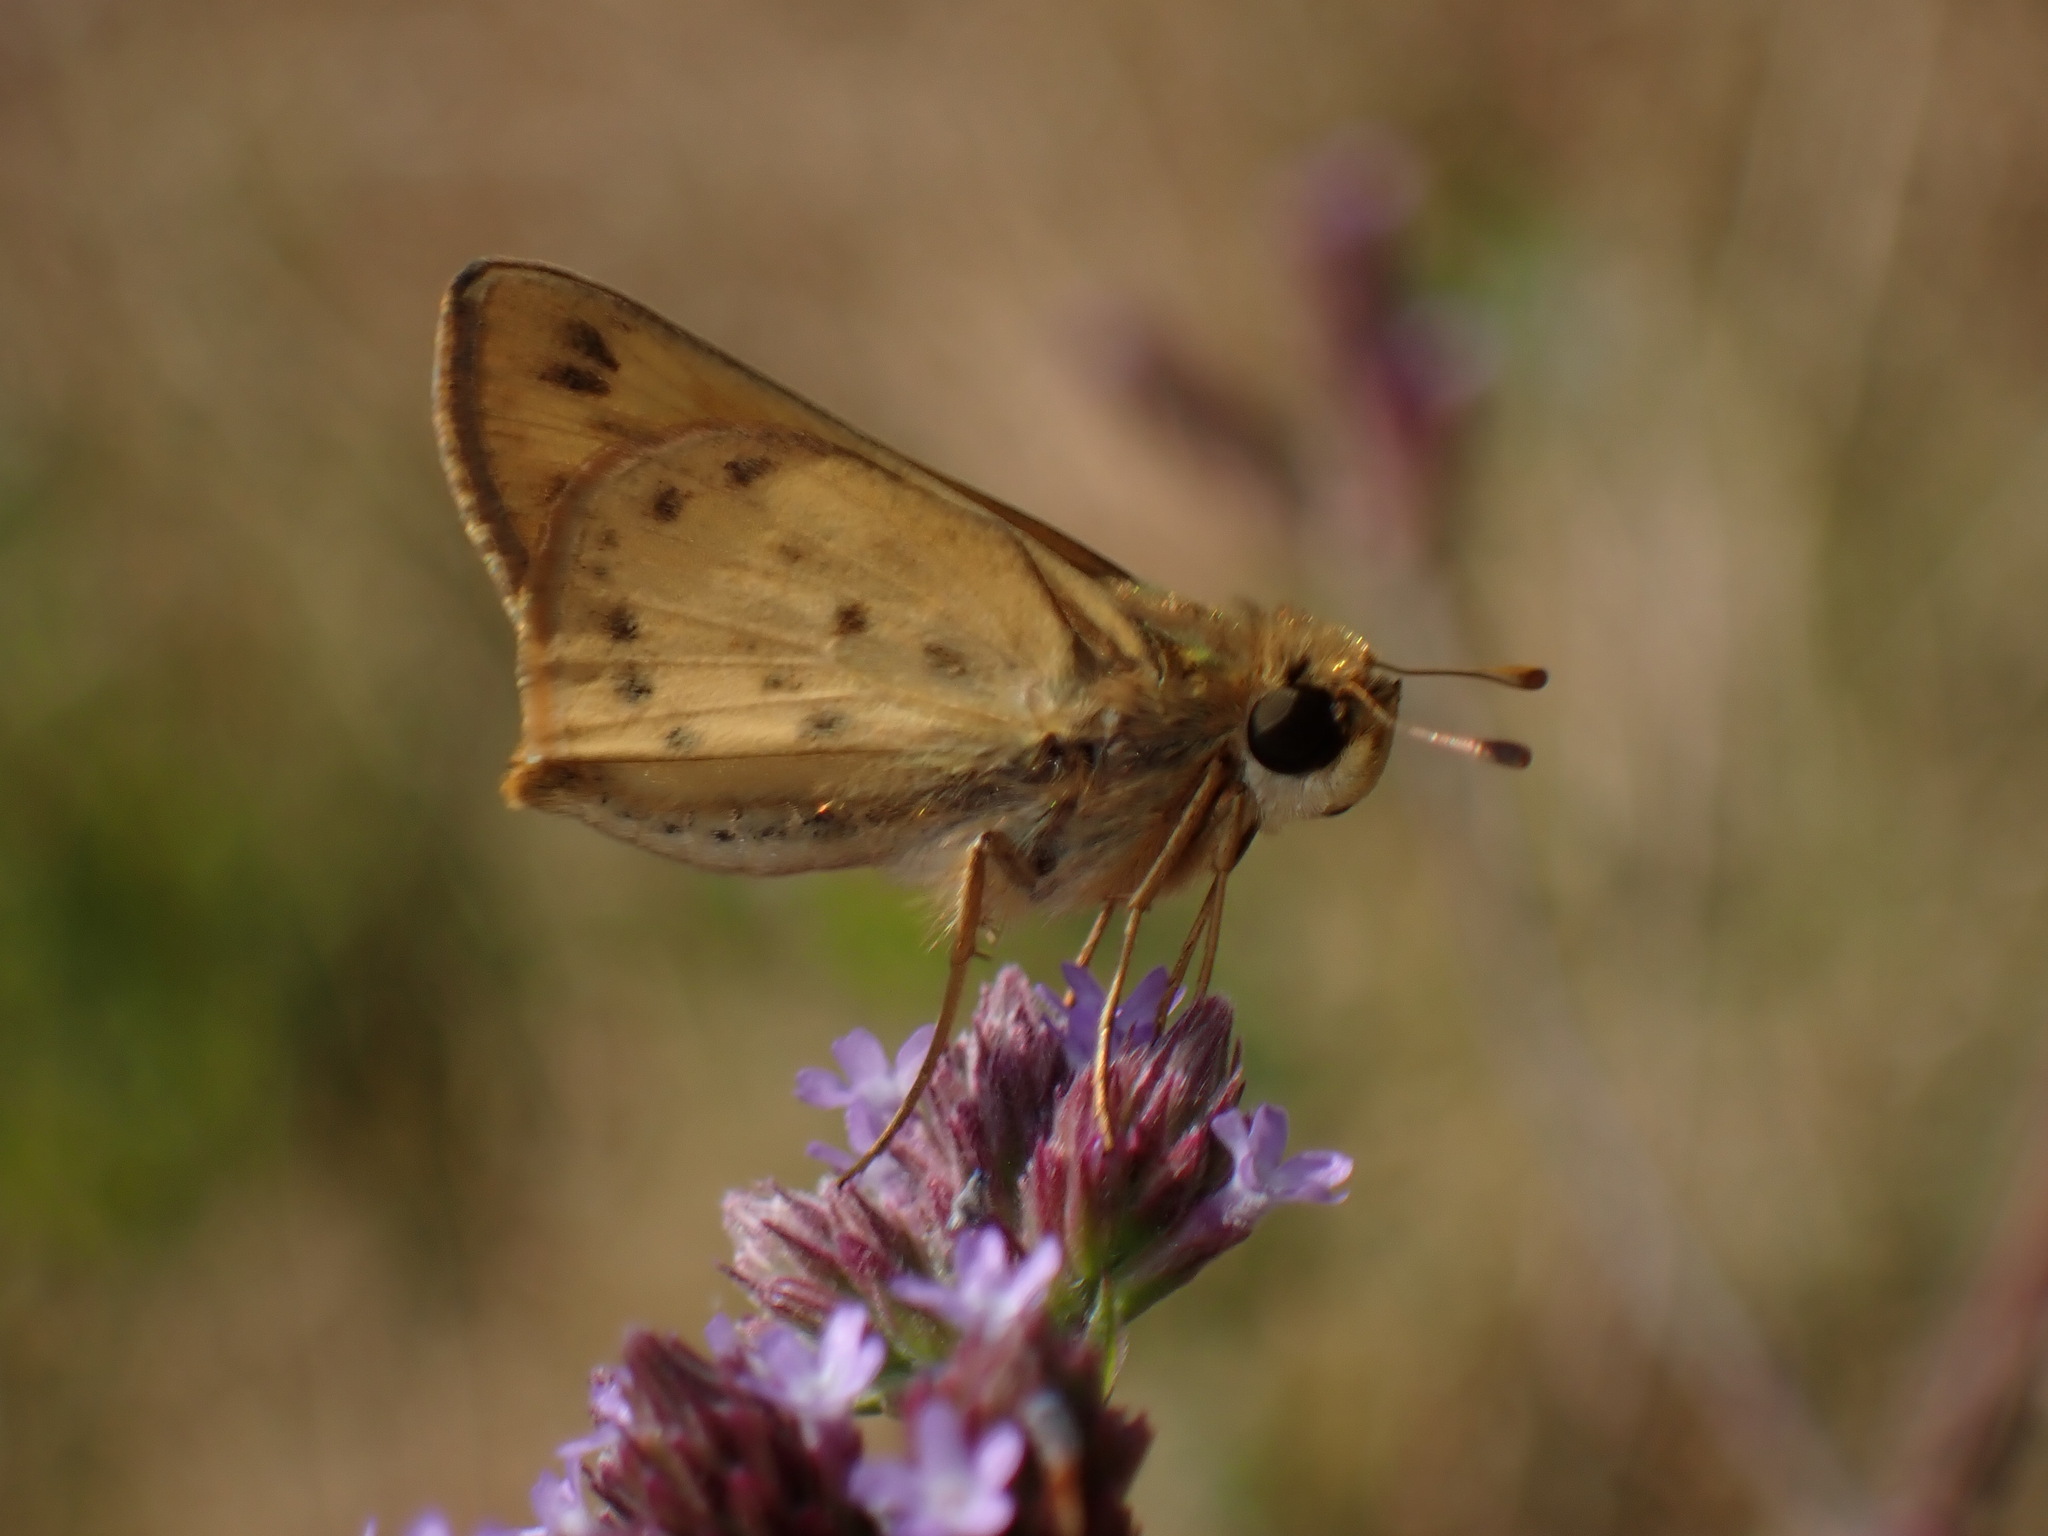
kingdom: Animalia
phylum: Arthropoda
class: Insecta
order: Lepidoptera
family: Hesperiidae
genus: Hylephila
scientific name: Hylephila phyleus
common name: Fiery skipper
